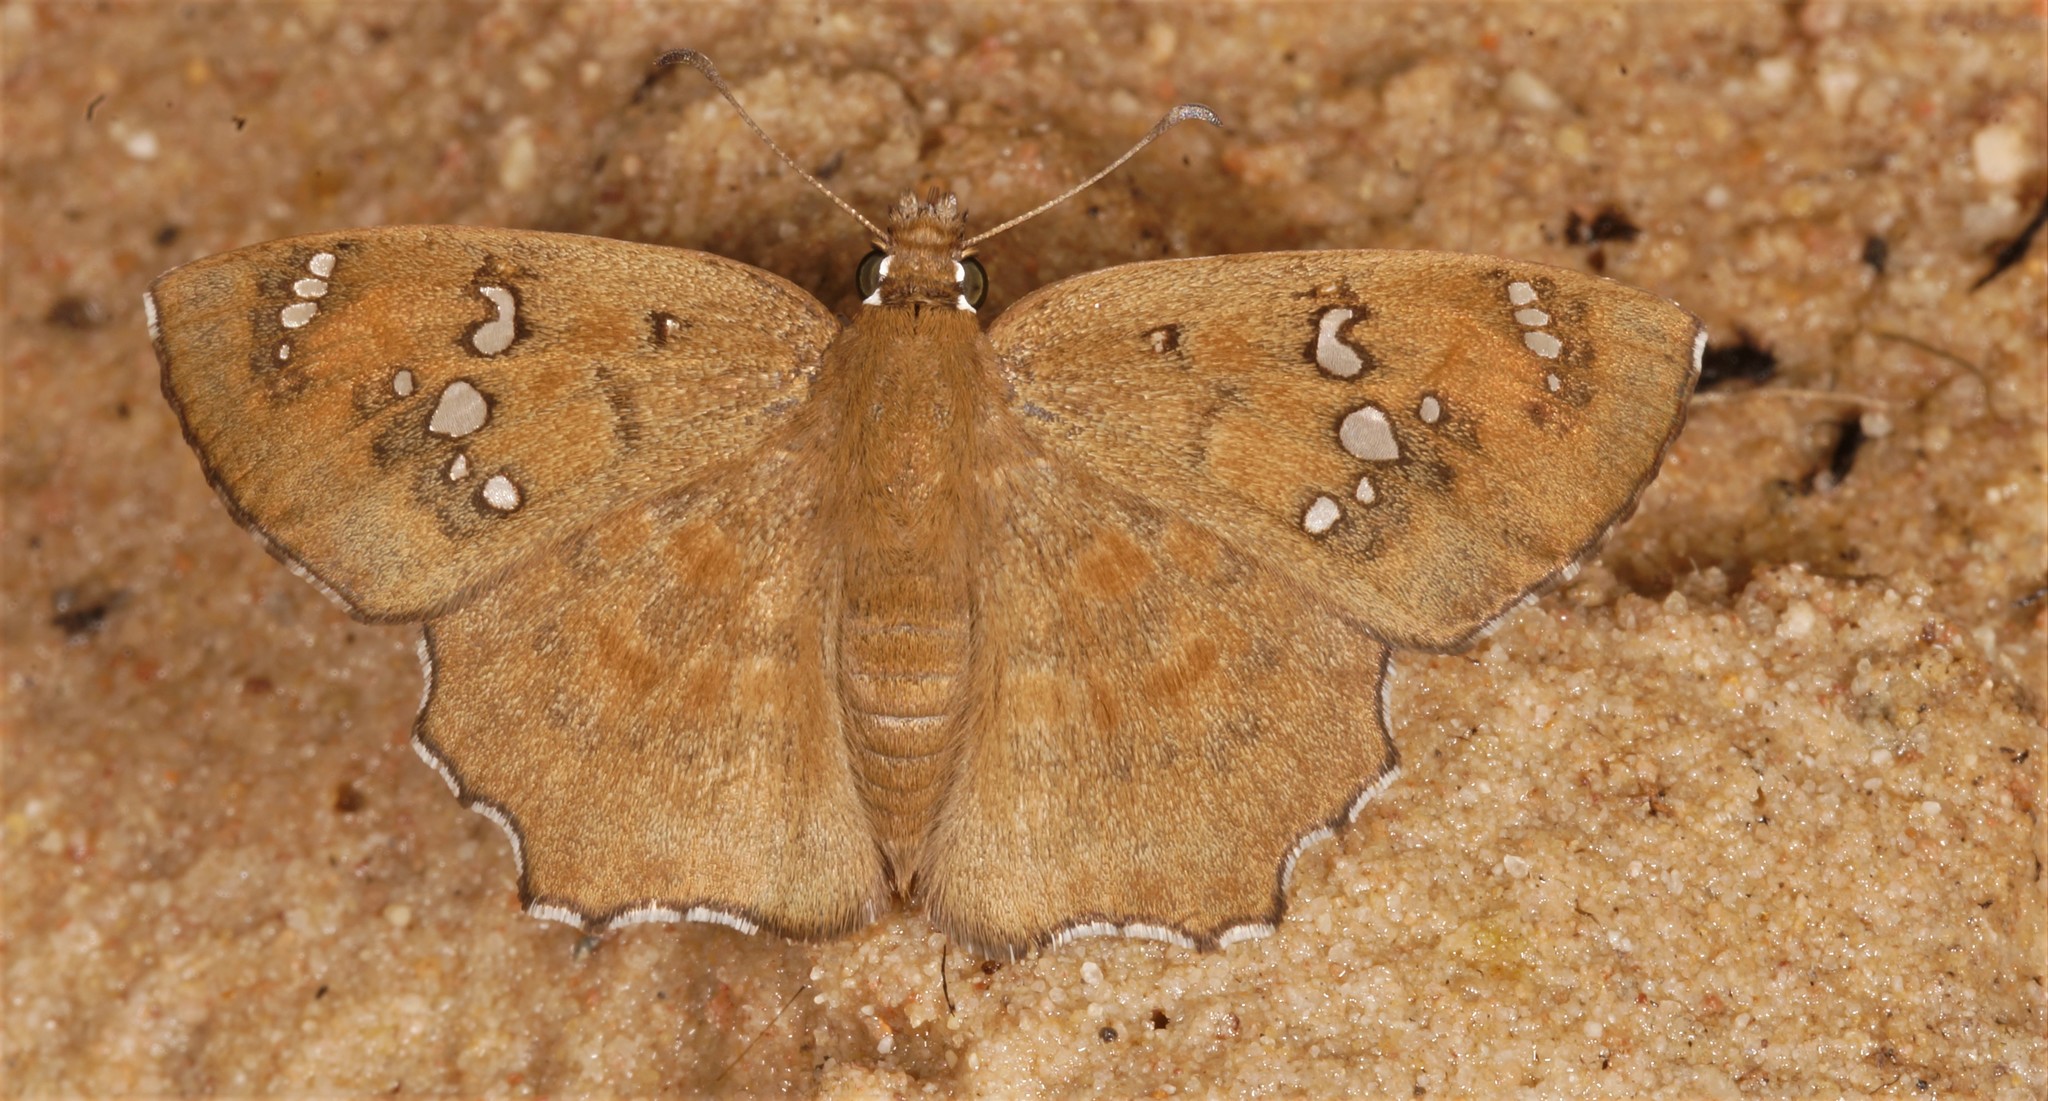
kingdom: Animalia
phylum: Arthropoda
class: Insecta
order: Lepidoptera
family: Hesperiidae
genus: Caprona
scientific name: Caprona agama
